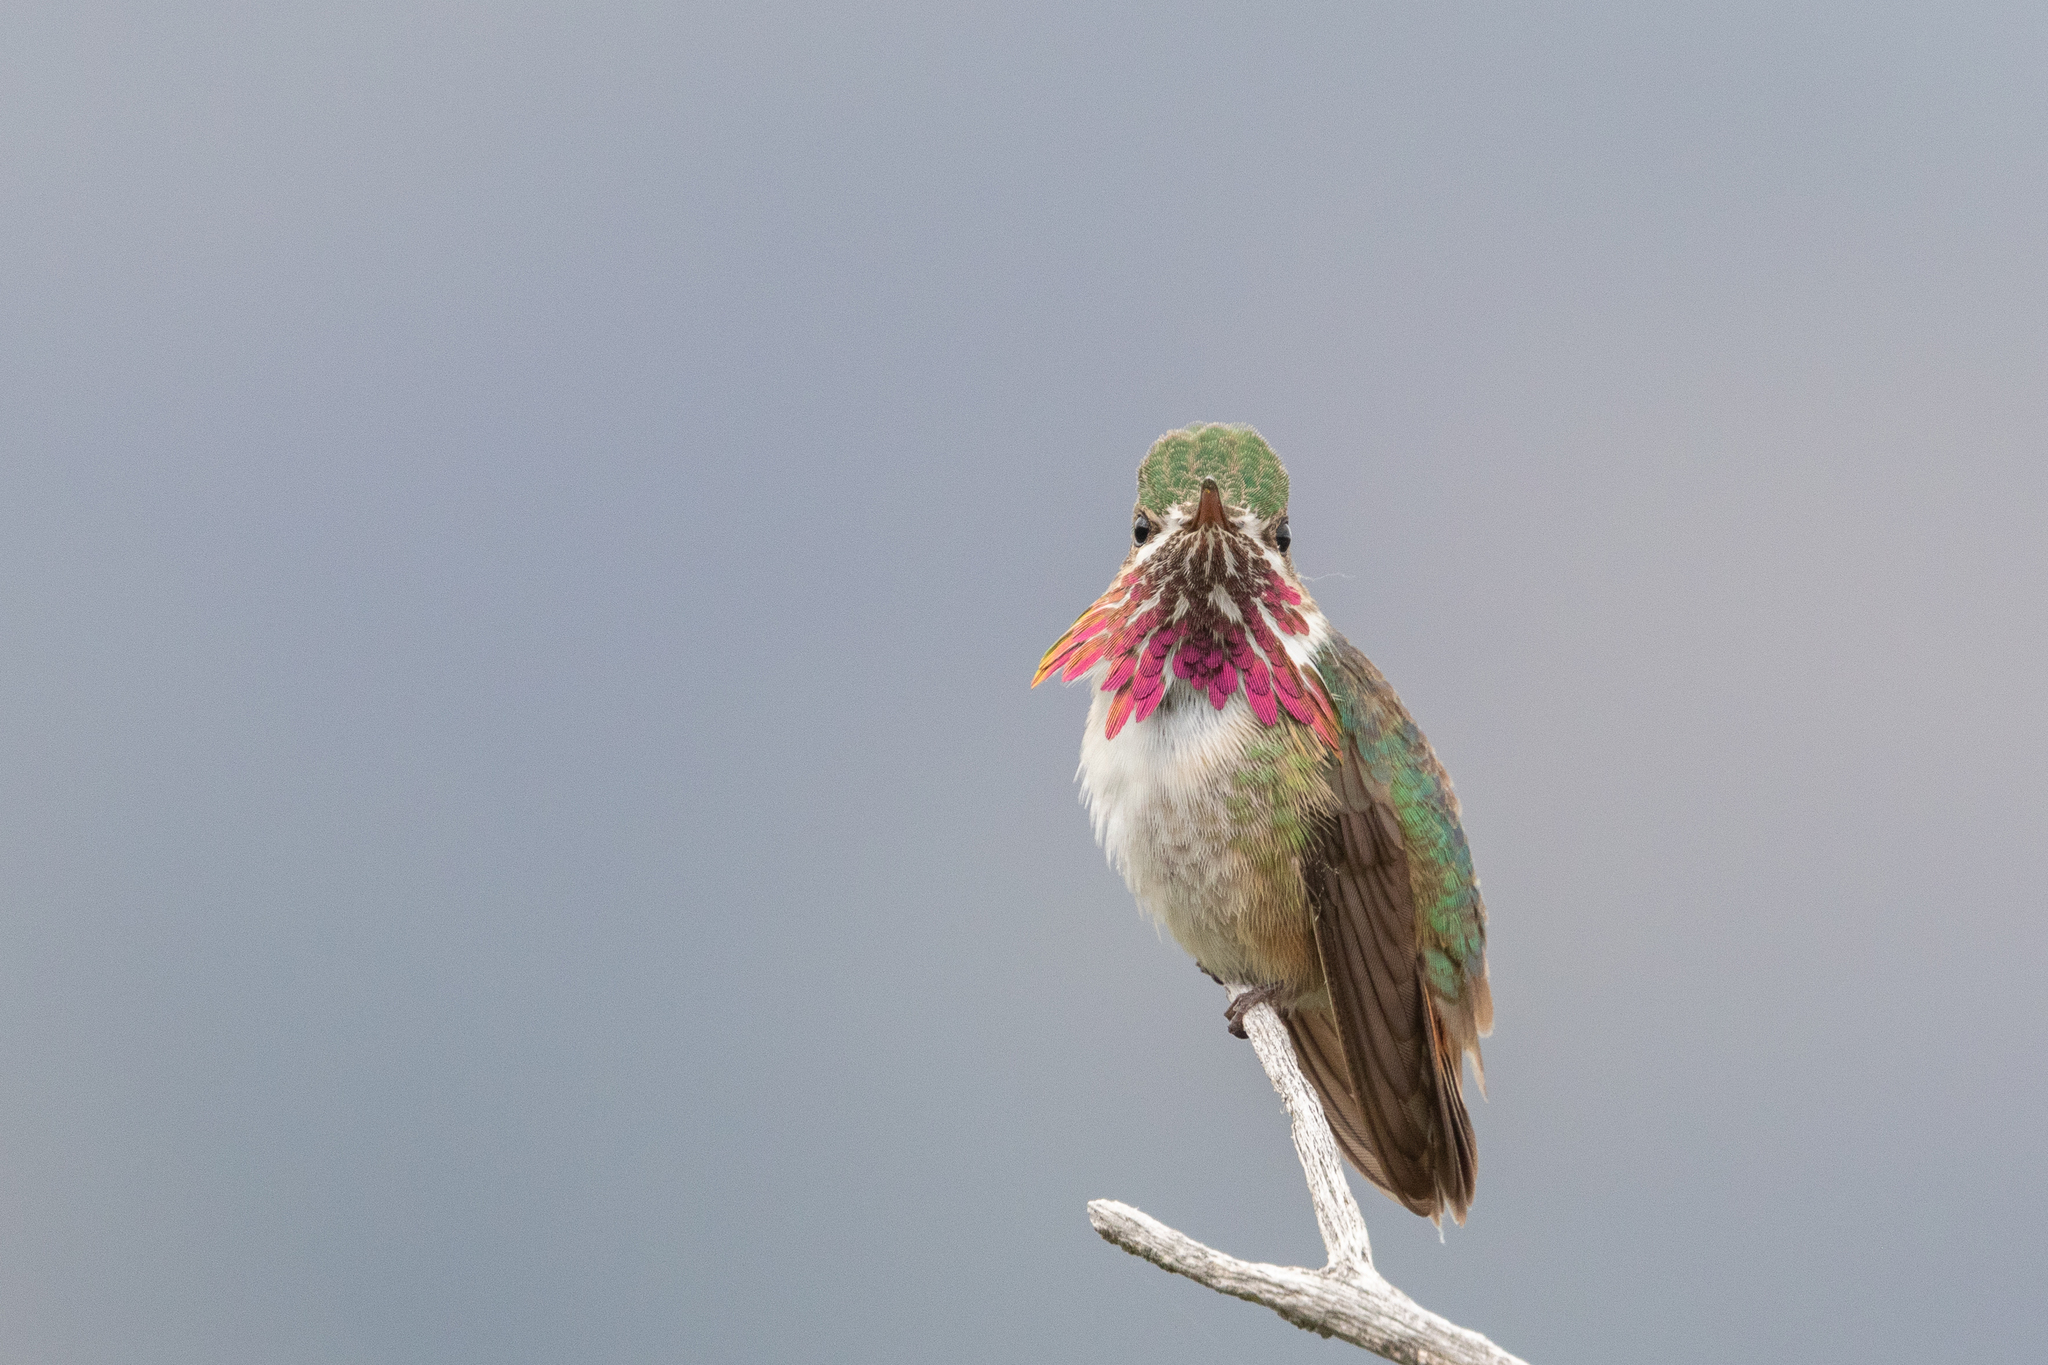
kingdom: Animalia
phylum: Chordata
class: Aves
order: Apodiformes
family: Trochilidae
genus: Selasphorus
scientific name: Selasphorus calliope
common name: Calliope hummingbird
